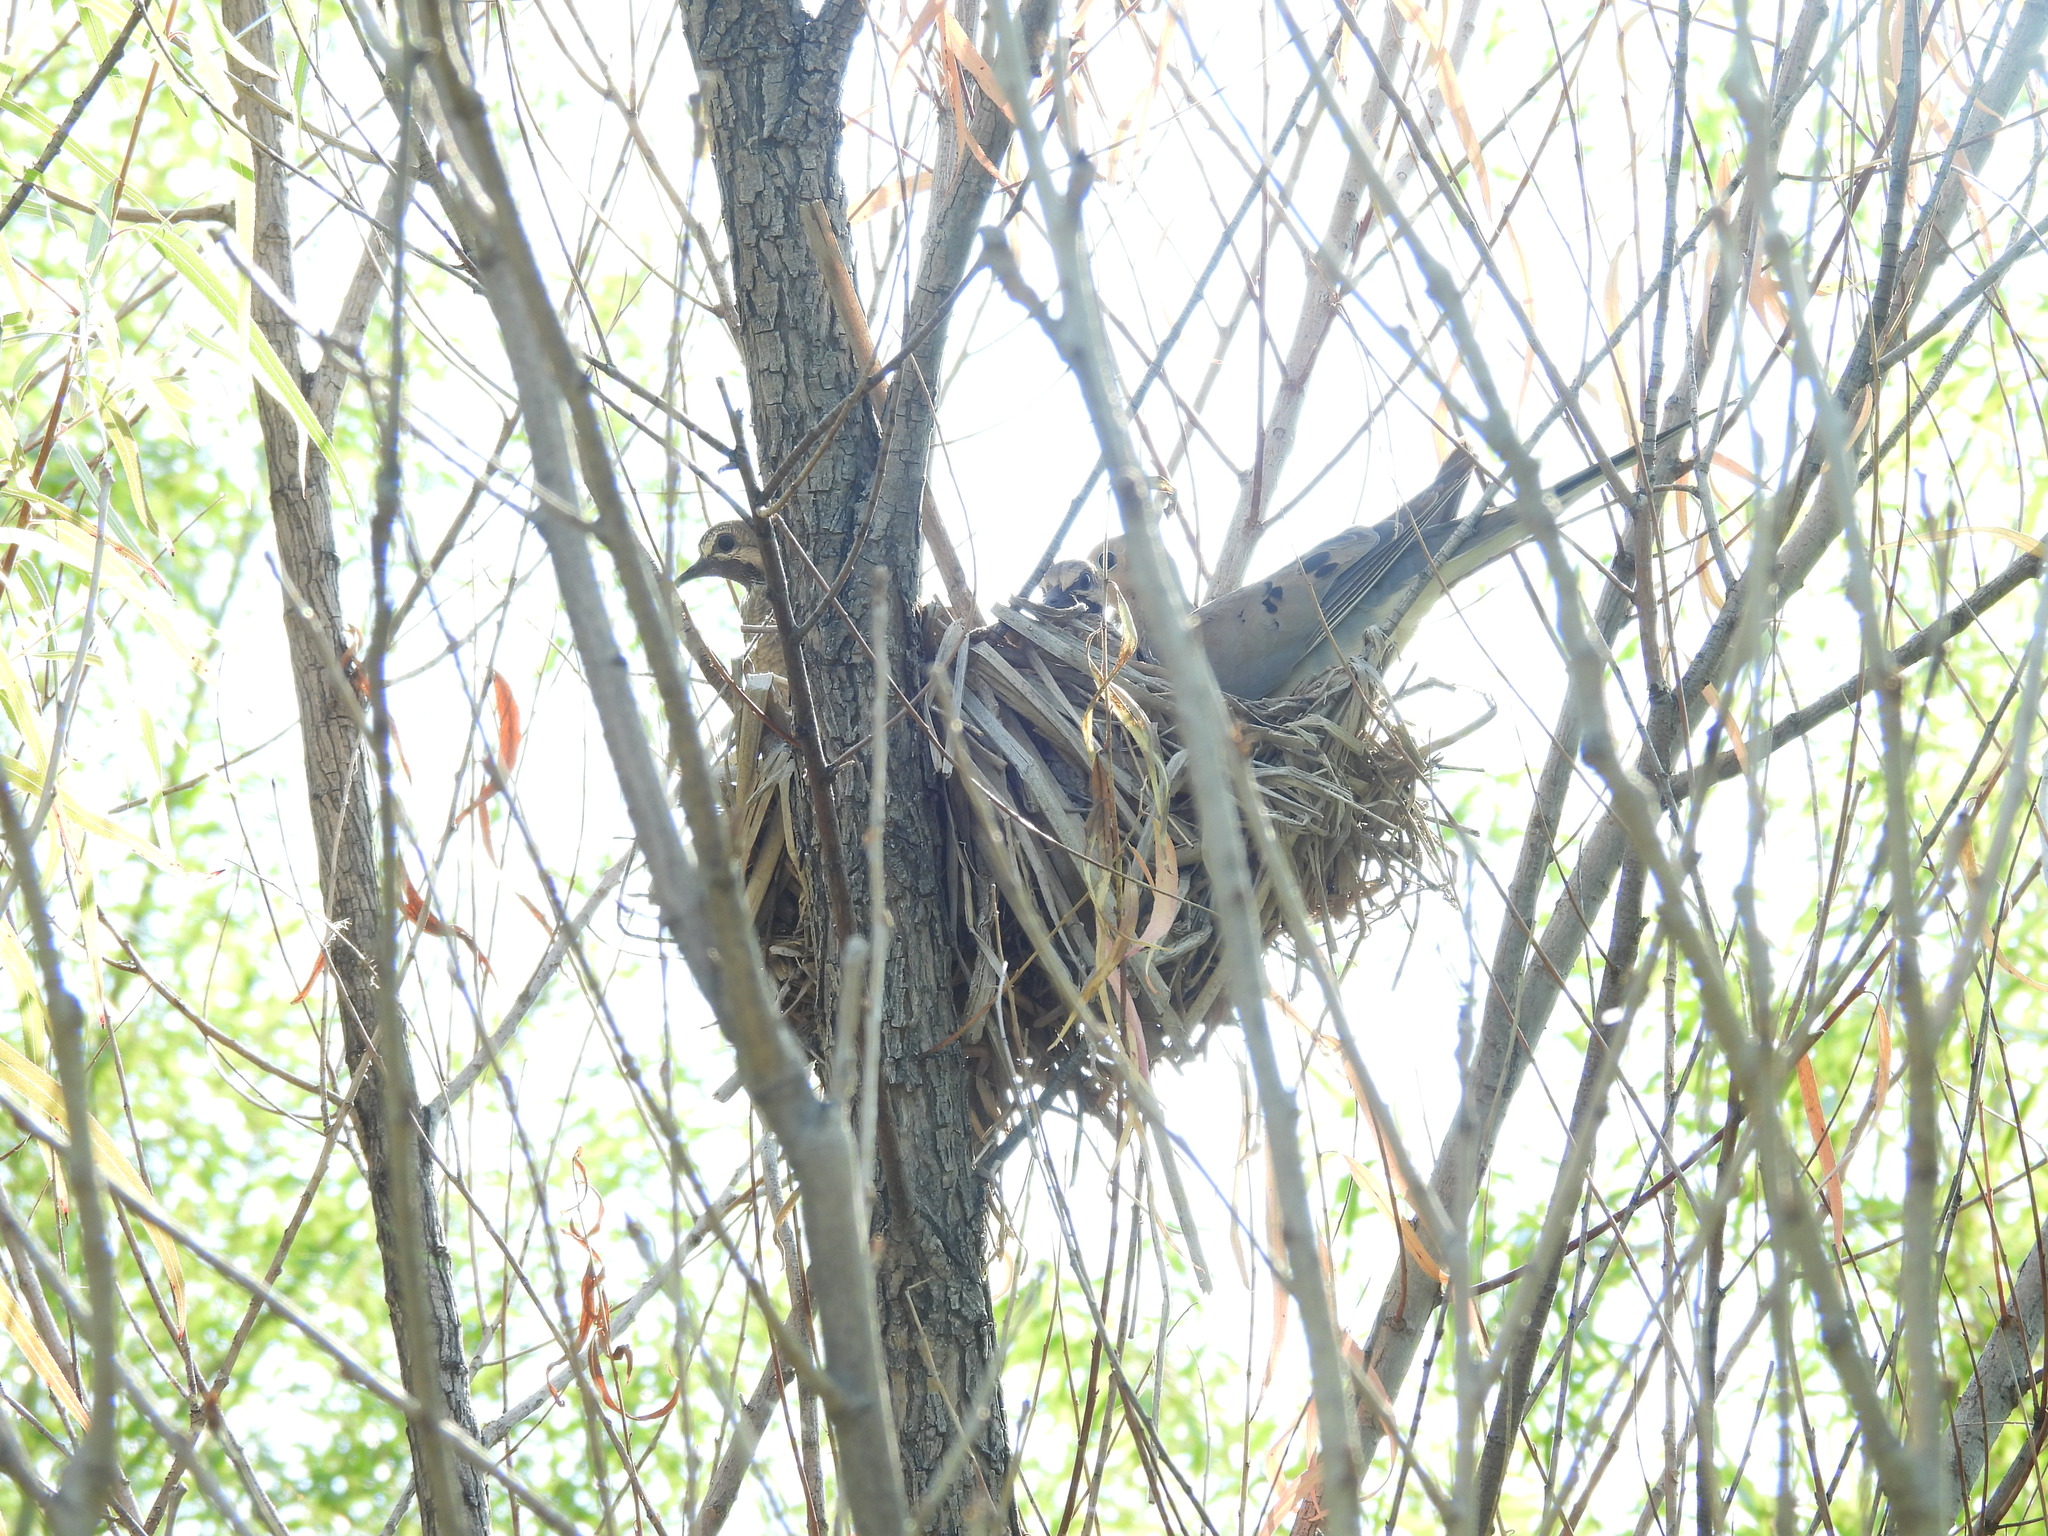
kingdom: Animalia
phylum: Chordata
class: Aves
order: Columbiformes
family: Columbidae
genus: Zenaida
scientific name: Zenaida macroura
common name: Mourning dove
